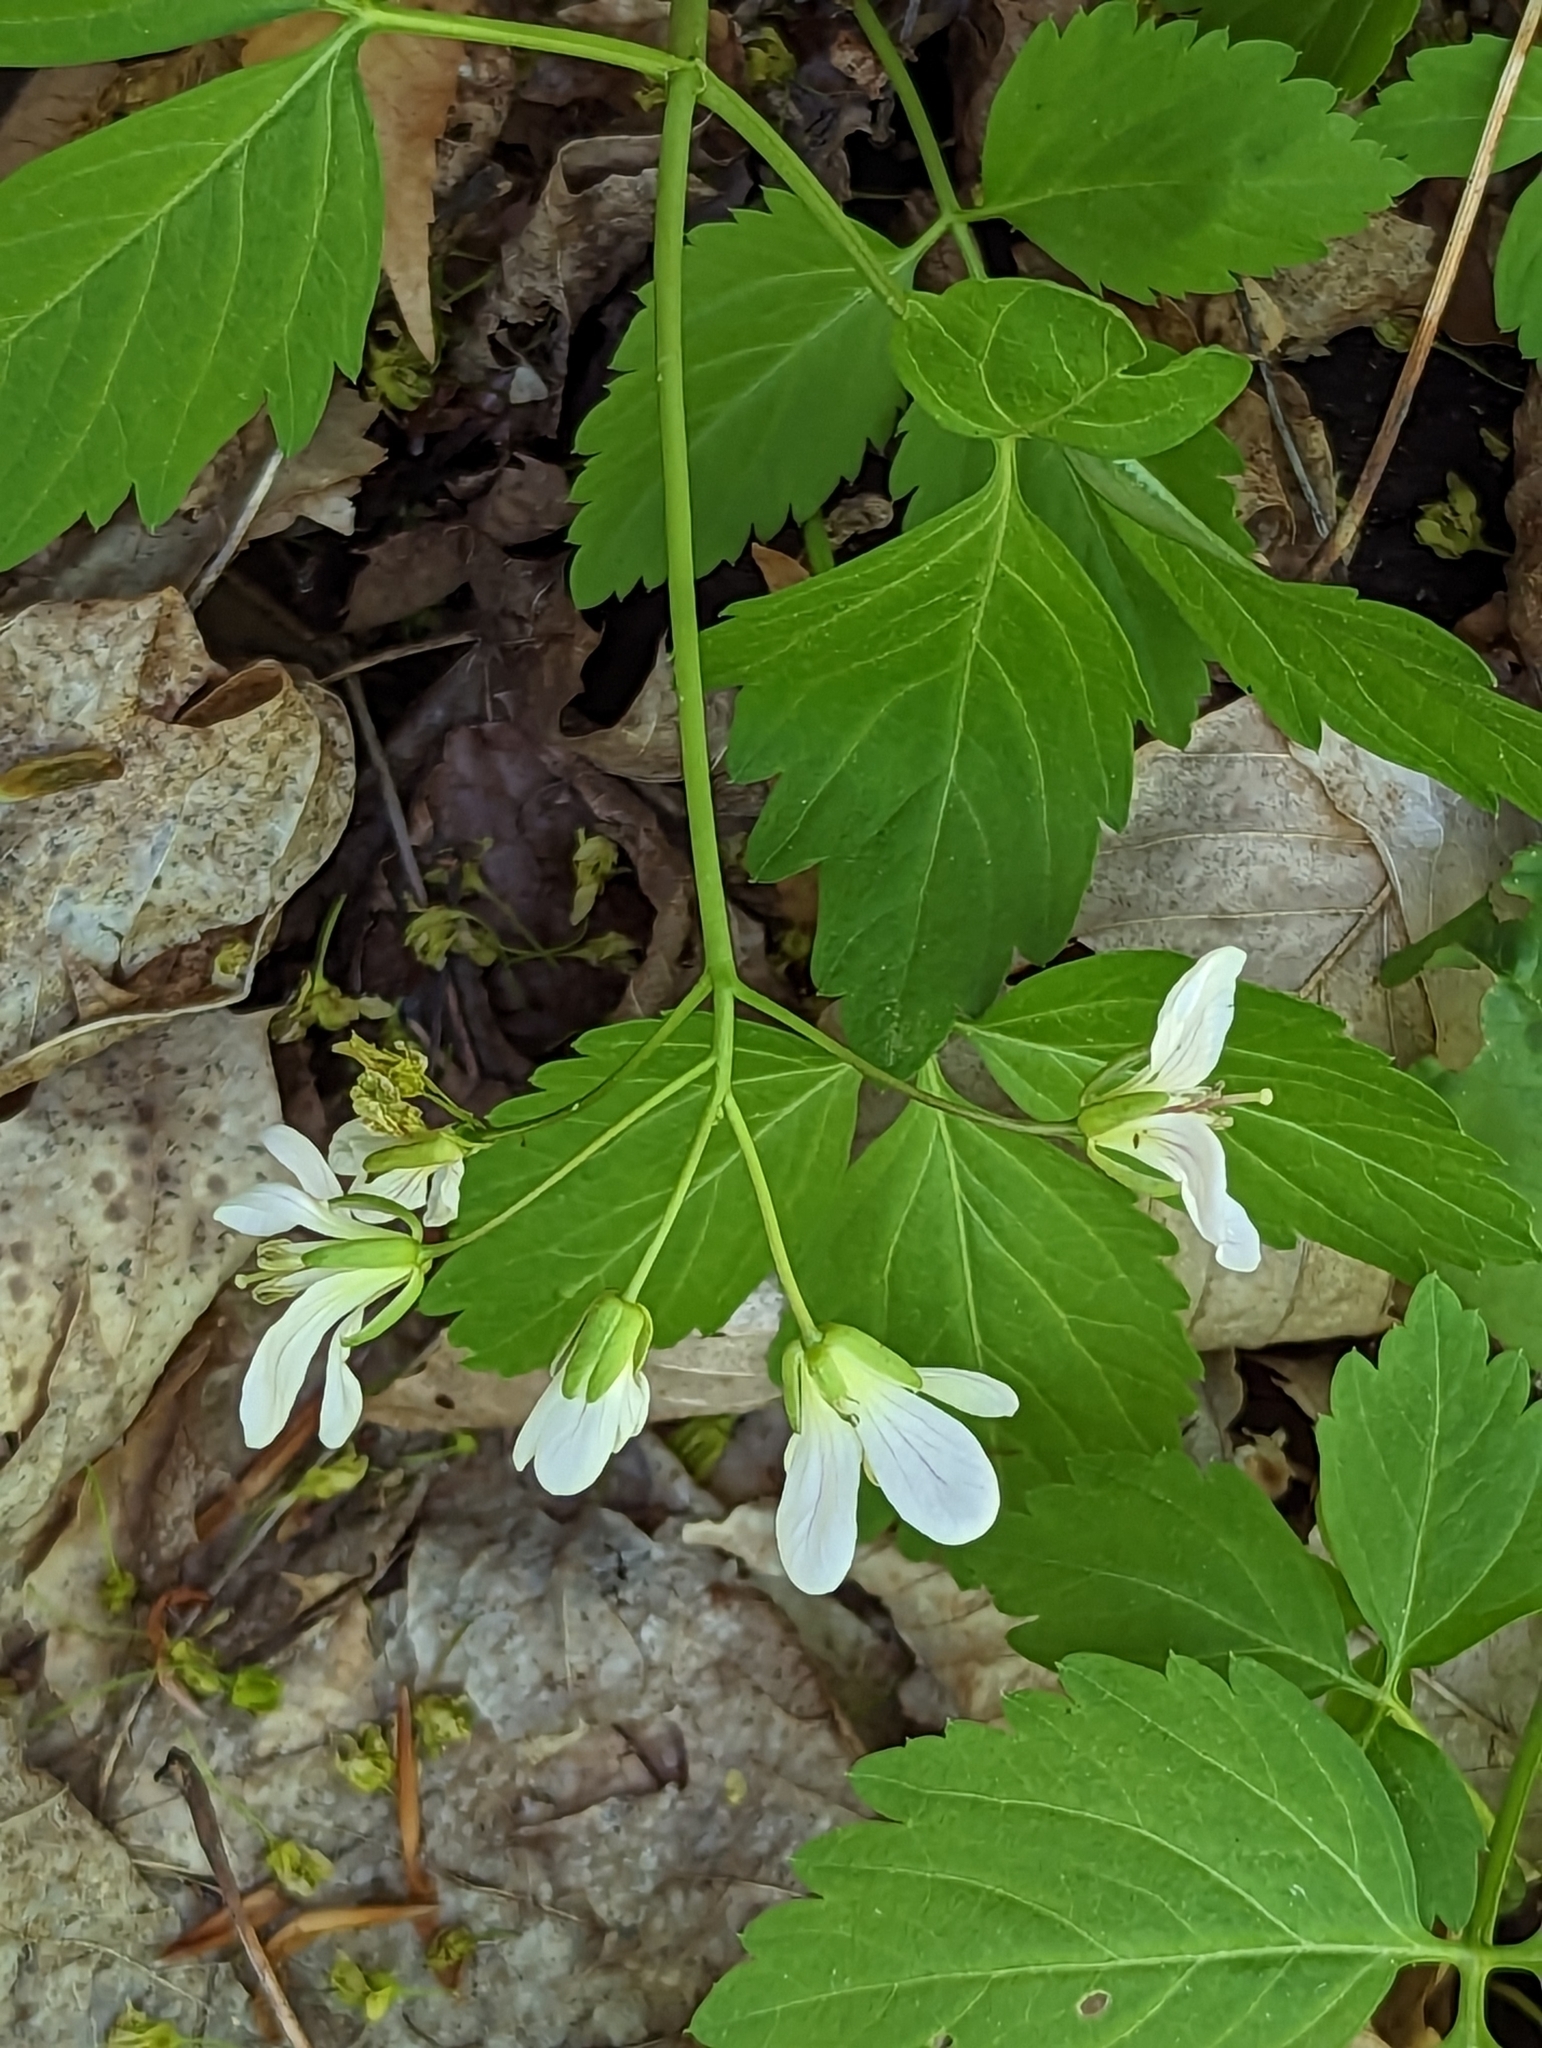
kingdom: Plantae
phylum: Tracheophyta
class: Magnoliopsida
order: Brassicales
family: Brassicaceae
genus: Cardamine
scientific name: Cardamine diphylla
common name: Broad-leaved toothwort
